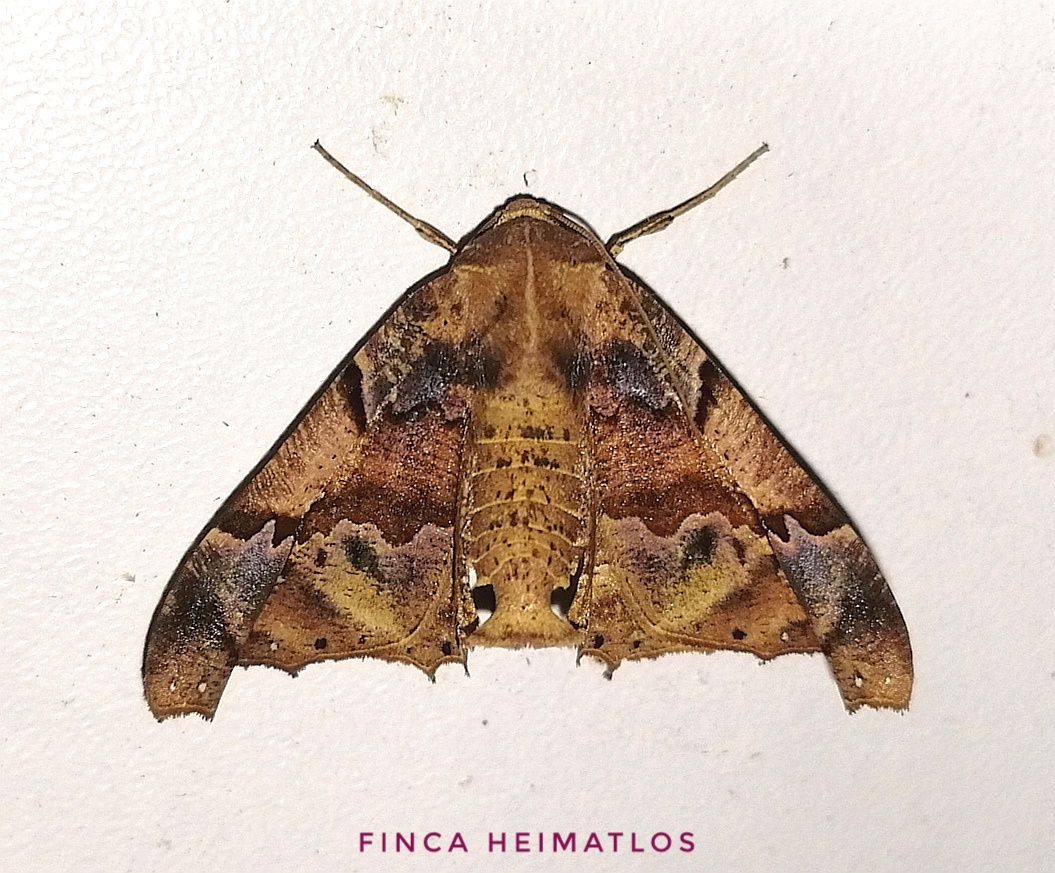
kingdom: Animalia
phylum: Arthropoda
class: Insecta
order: Lepidoptera
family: Geometridae
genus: Pero
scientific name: Pero dularia
